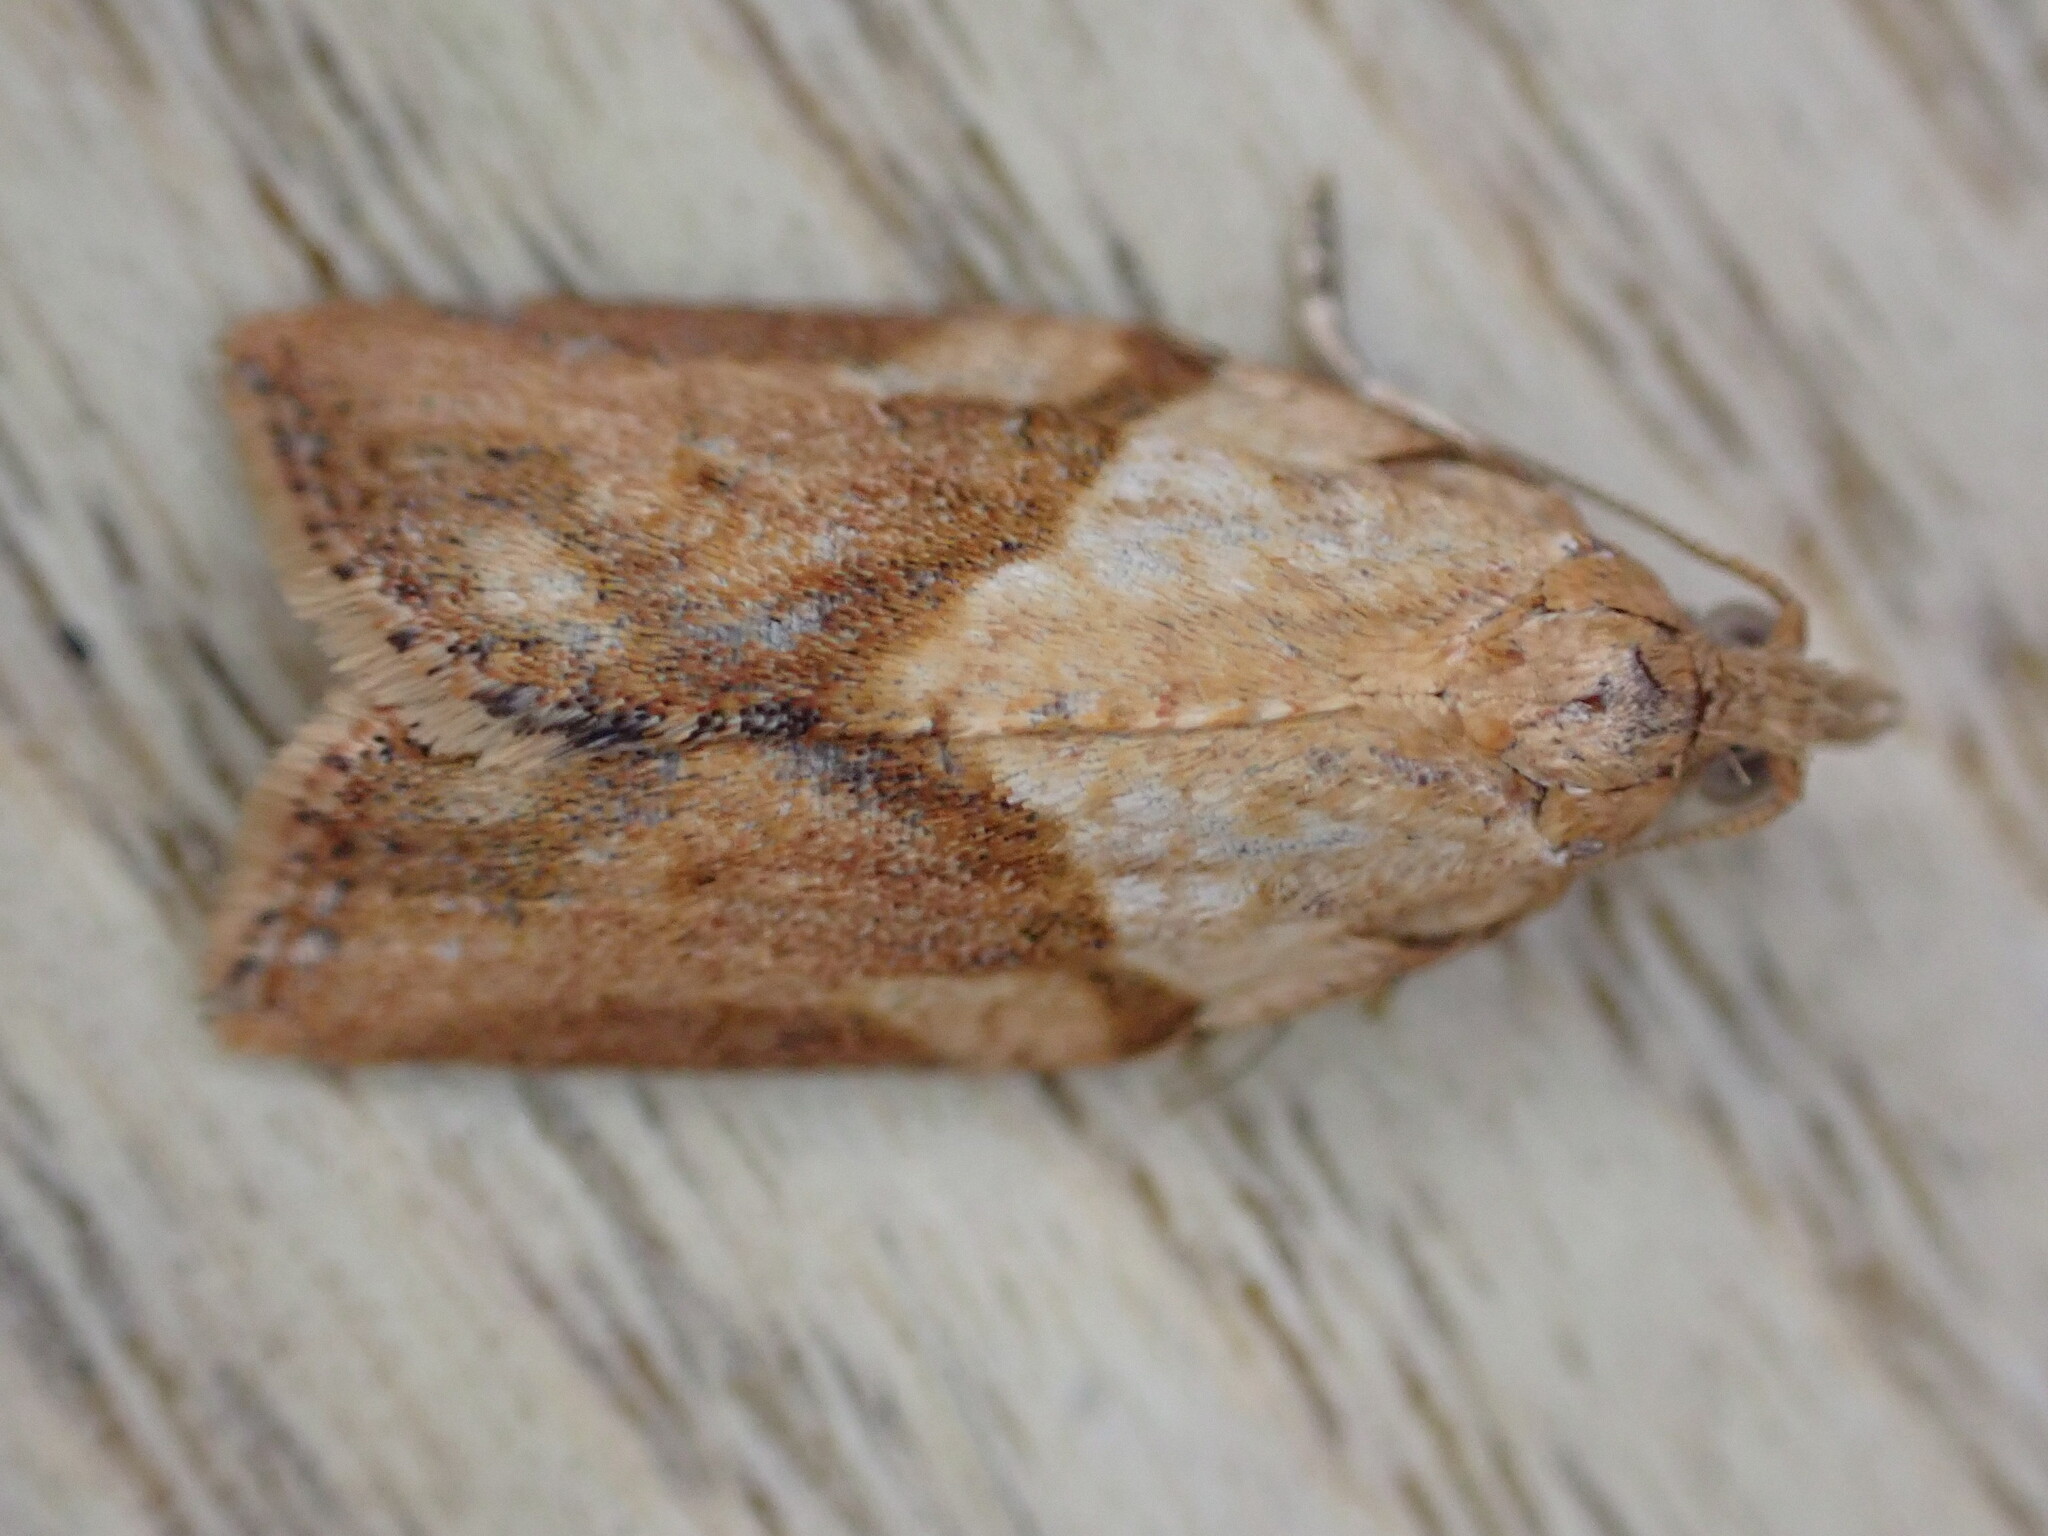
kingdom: Animalia
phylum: Arthropoda
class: Insecta
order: Lepidoptera
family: Tortricidae
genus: Epiphyas
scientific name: Epiphyas postvittana
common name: Light brown apple moth
